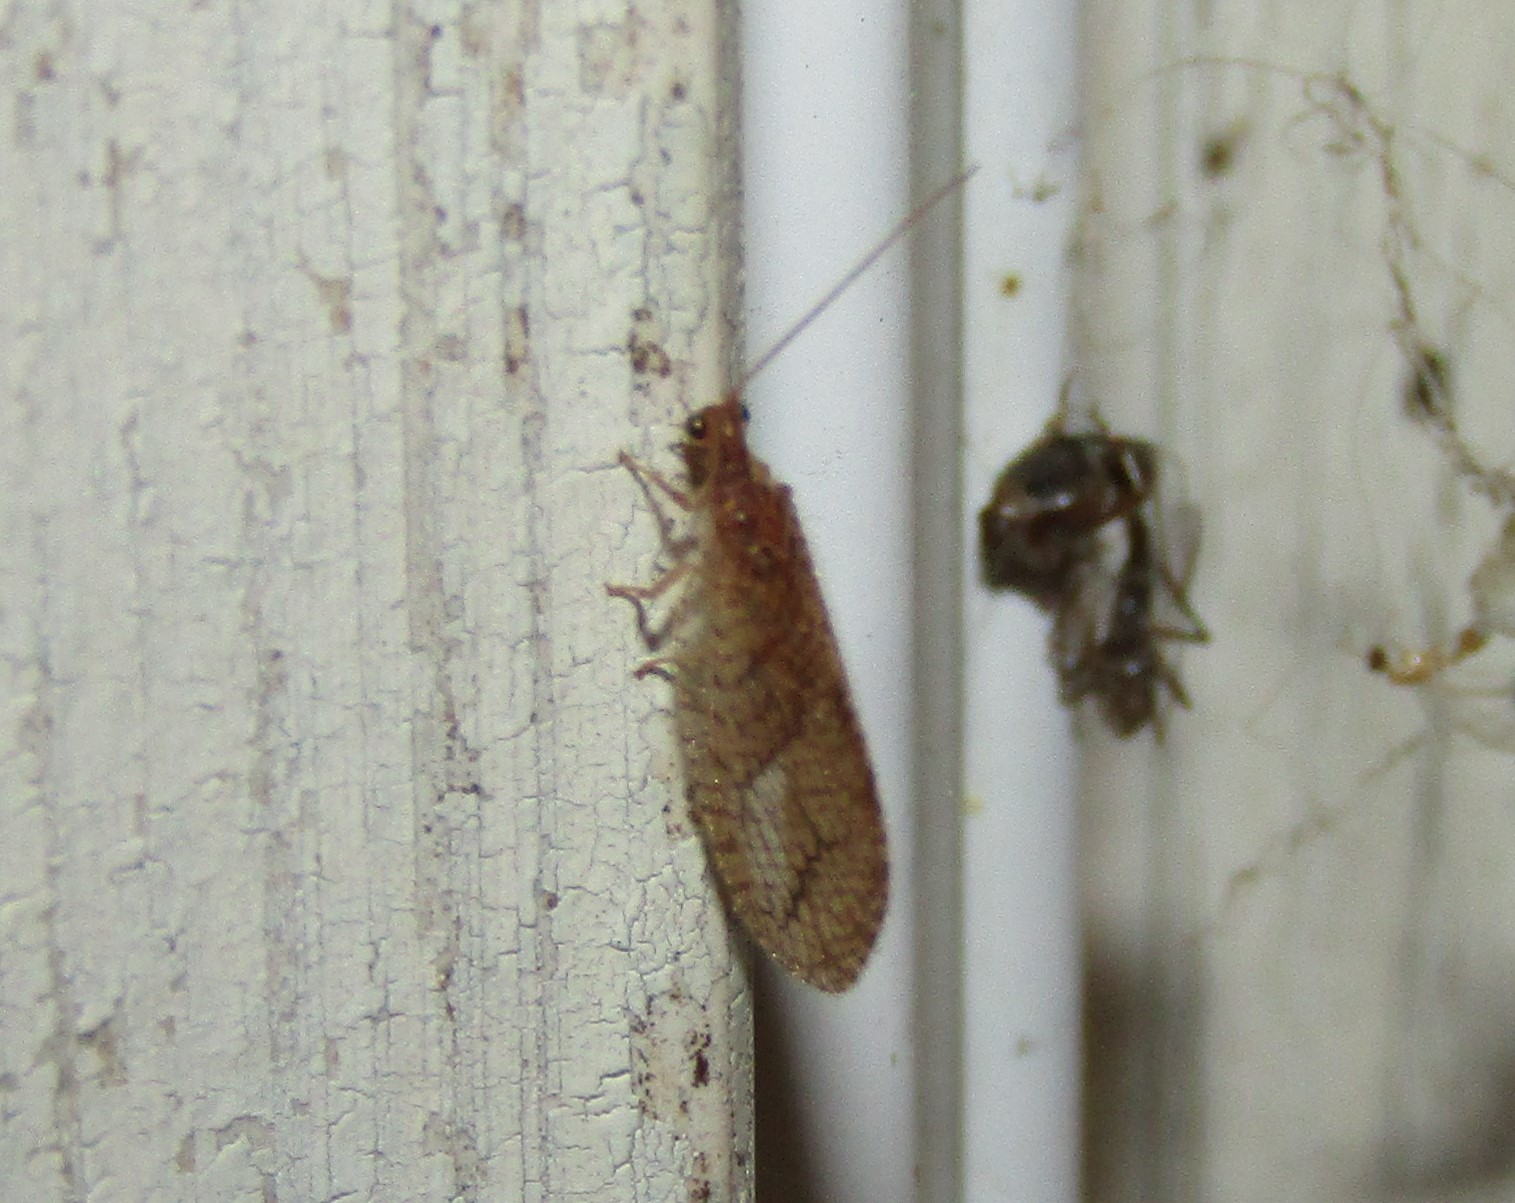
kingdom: Animalia
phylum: Arthropoda
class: Insecta
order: Neuroptera
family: Hemerobiidae
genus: Micromus
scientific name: Micromus posticus
